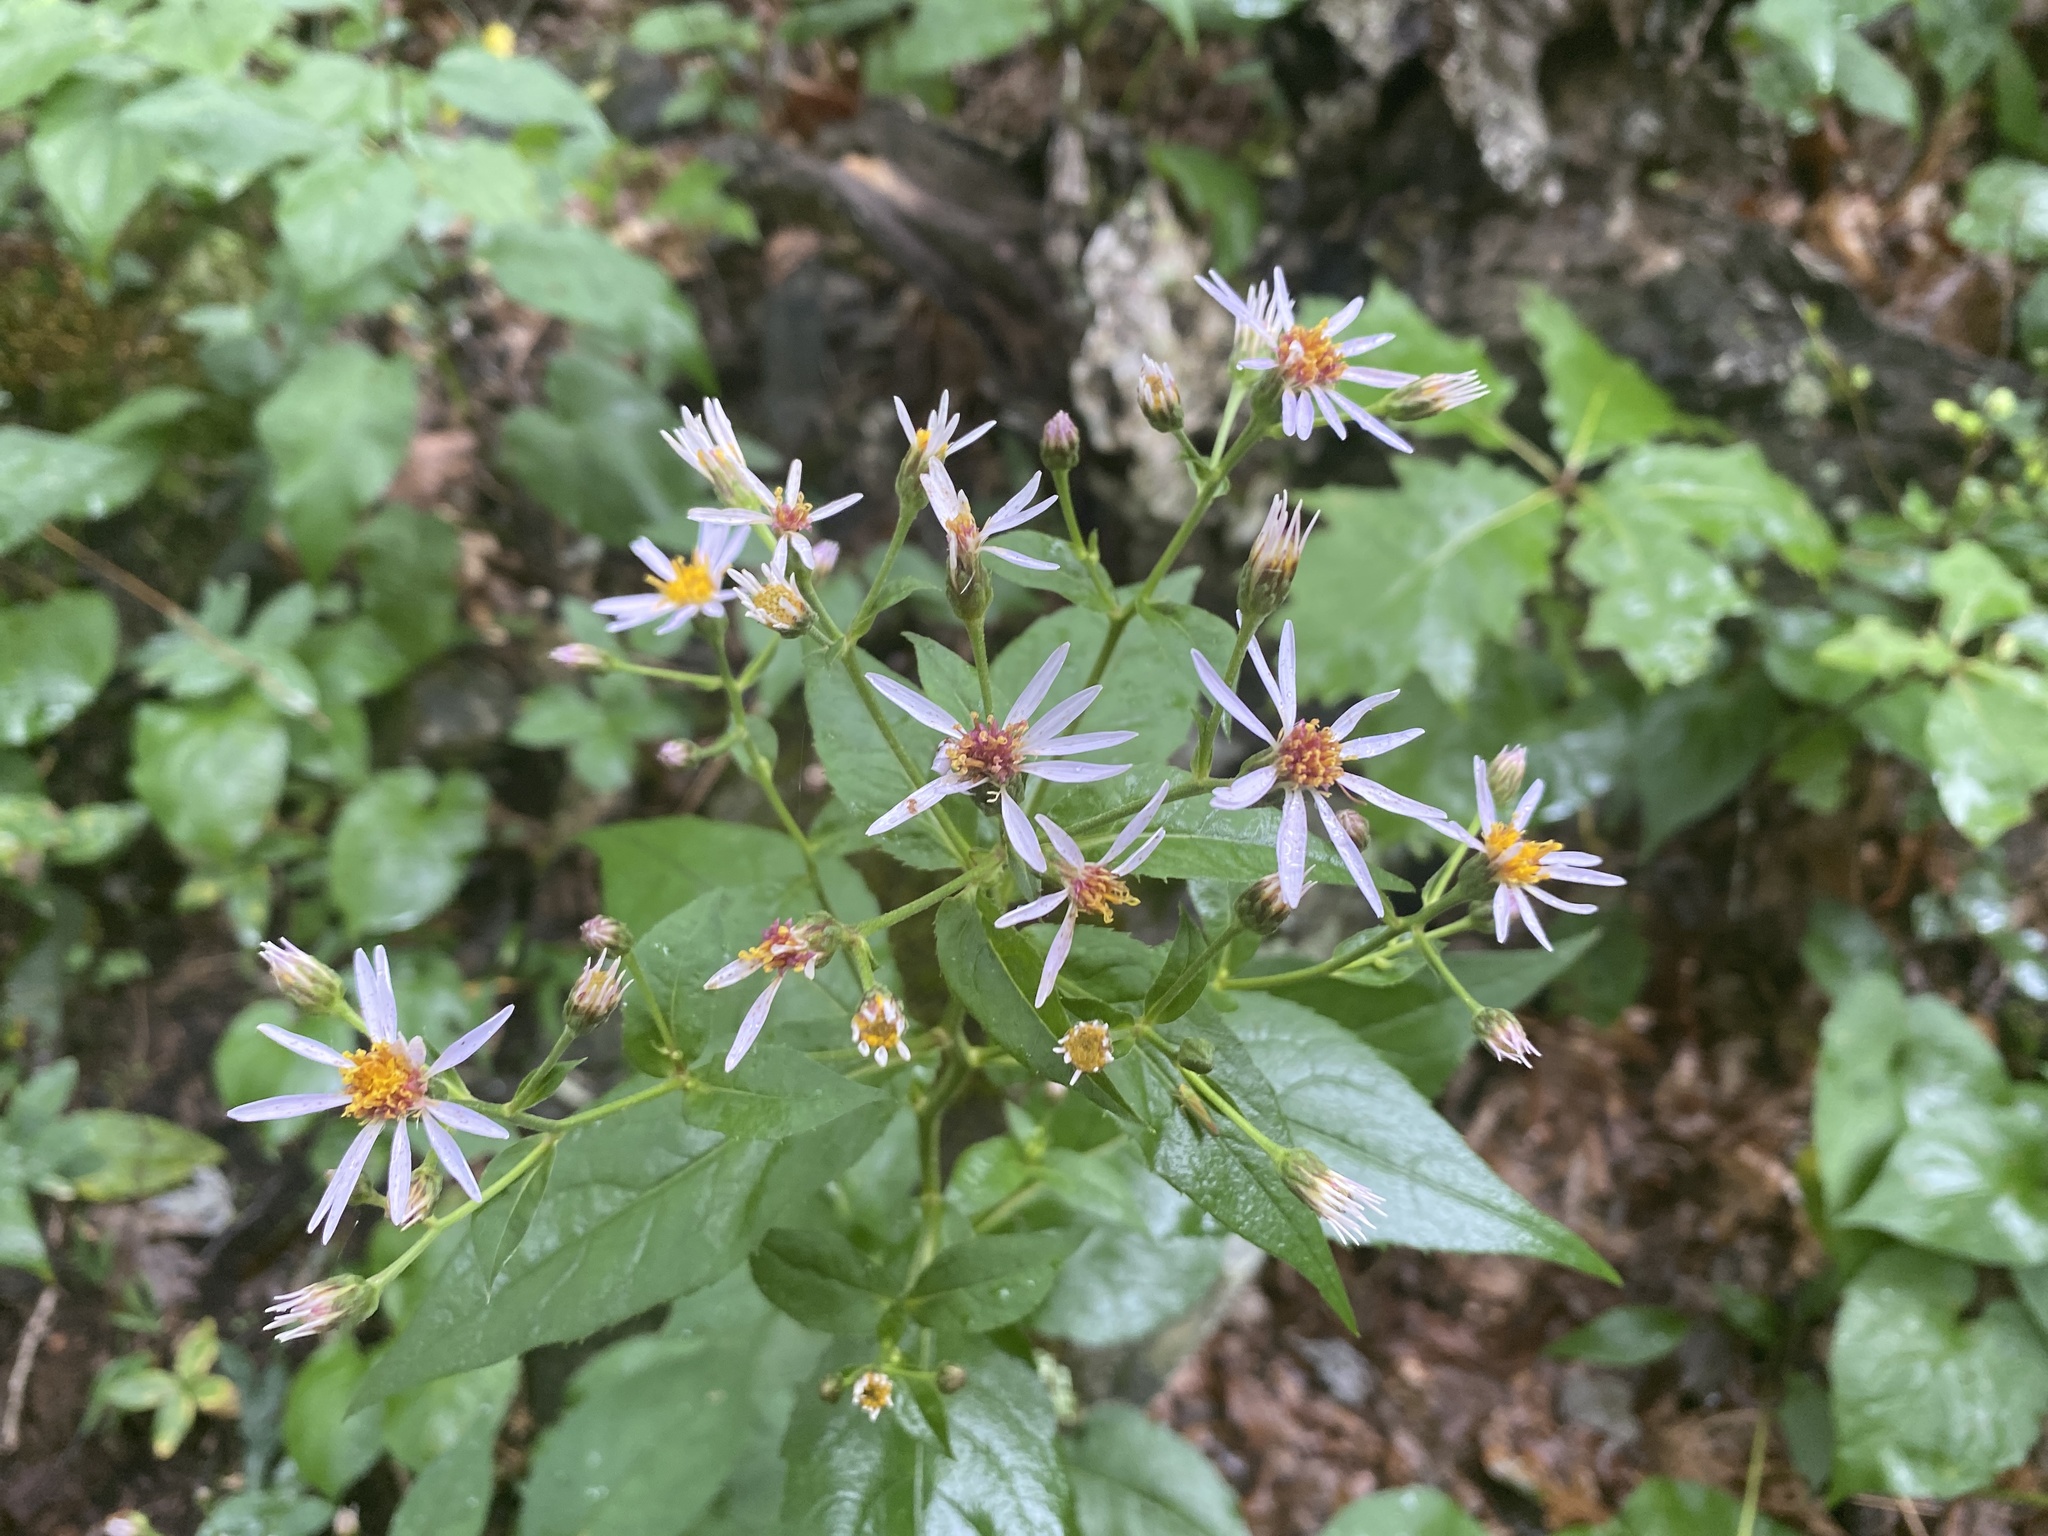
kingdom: Plantae
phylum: Tracheophyta
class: Magnoliopsida
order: Asterales
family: Asteraceae
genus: Eurybia
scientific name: Eurybia macrophylla
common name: Big-leaved aster
